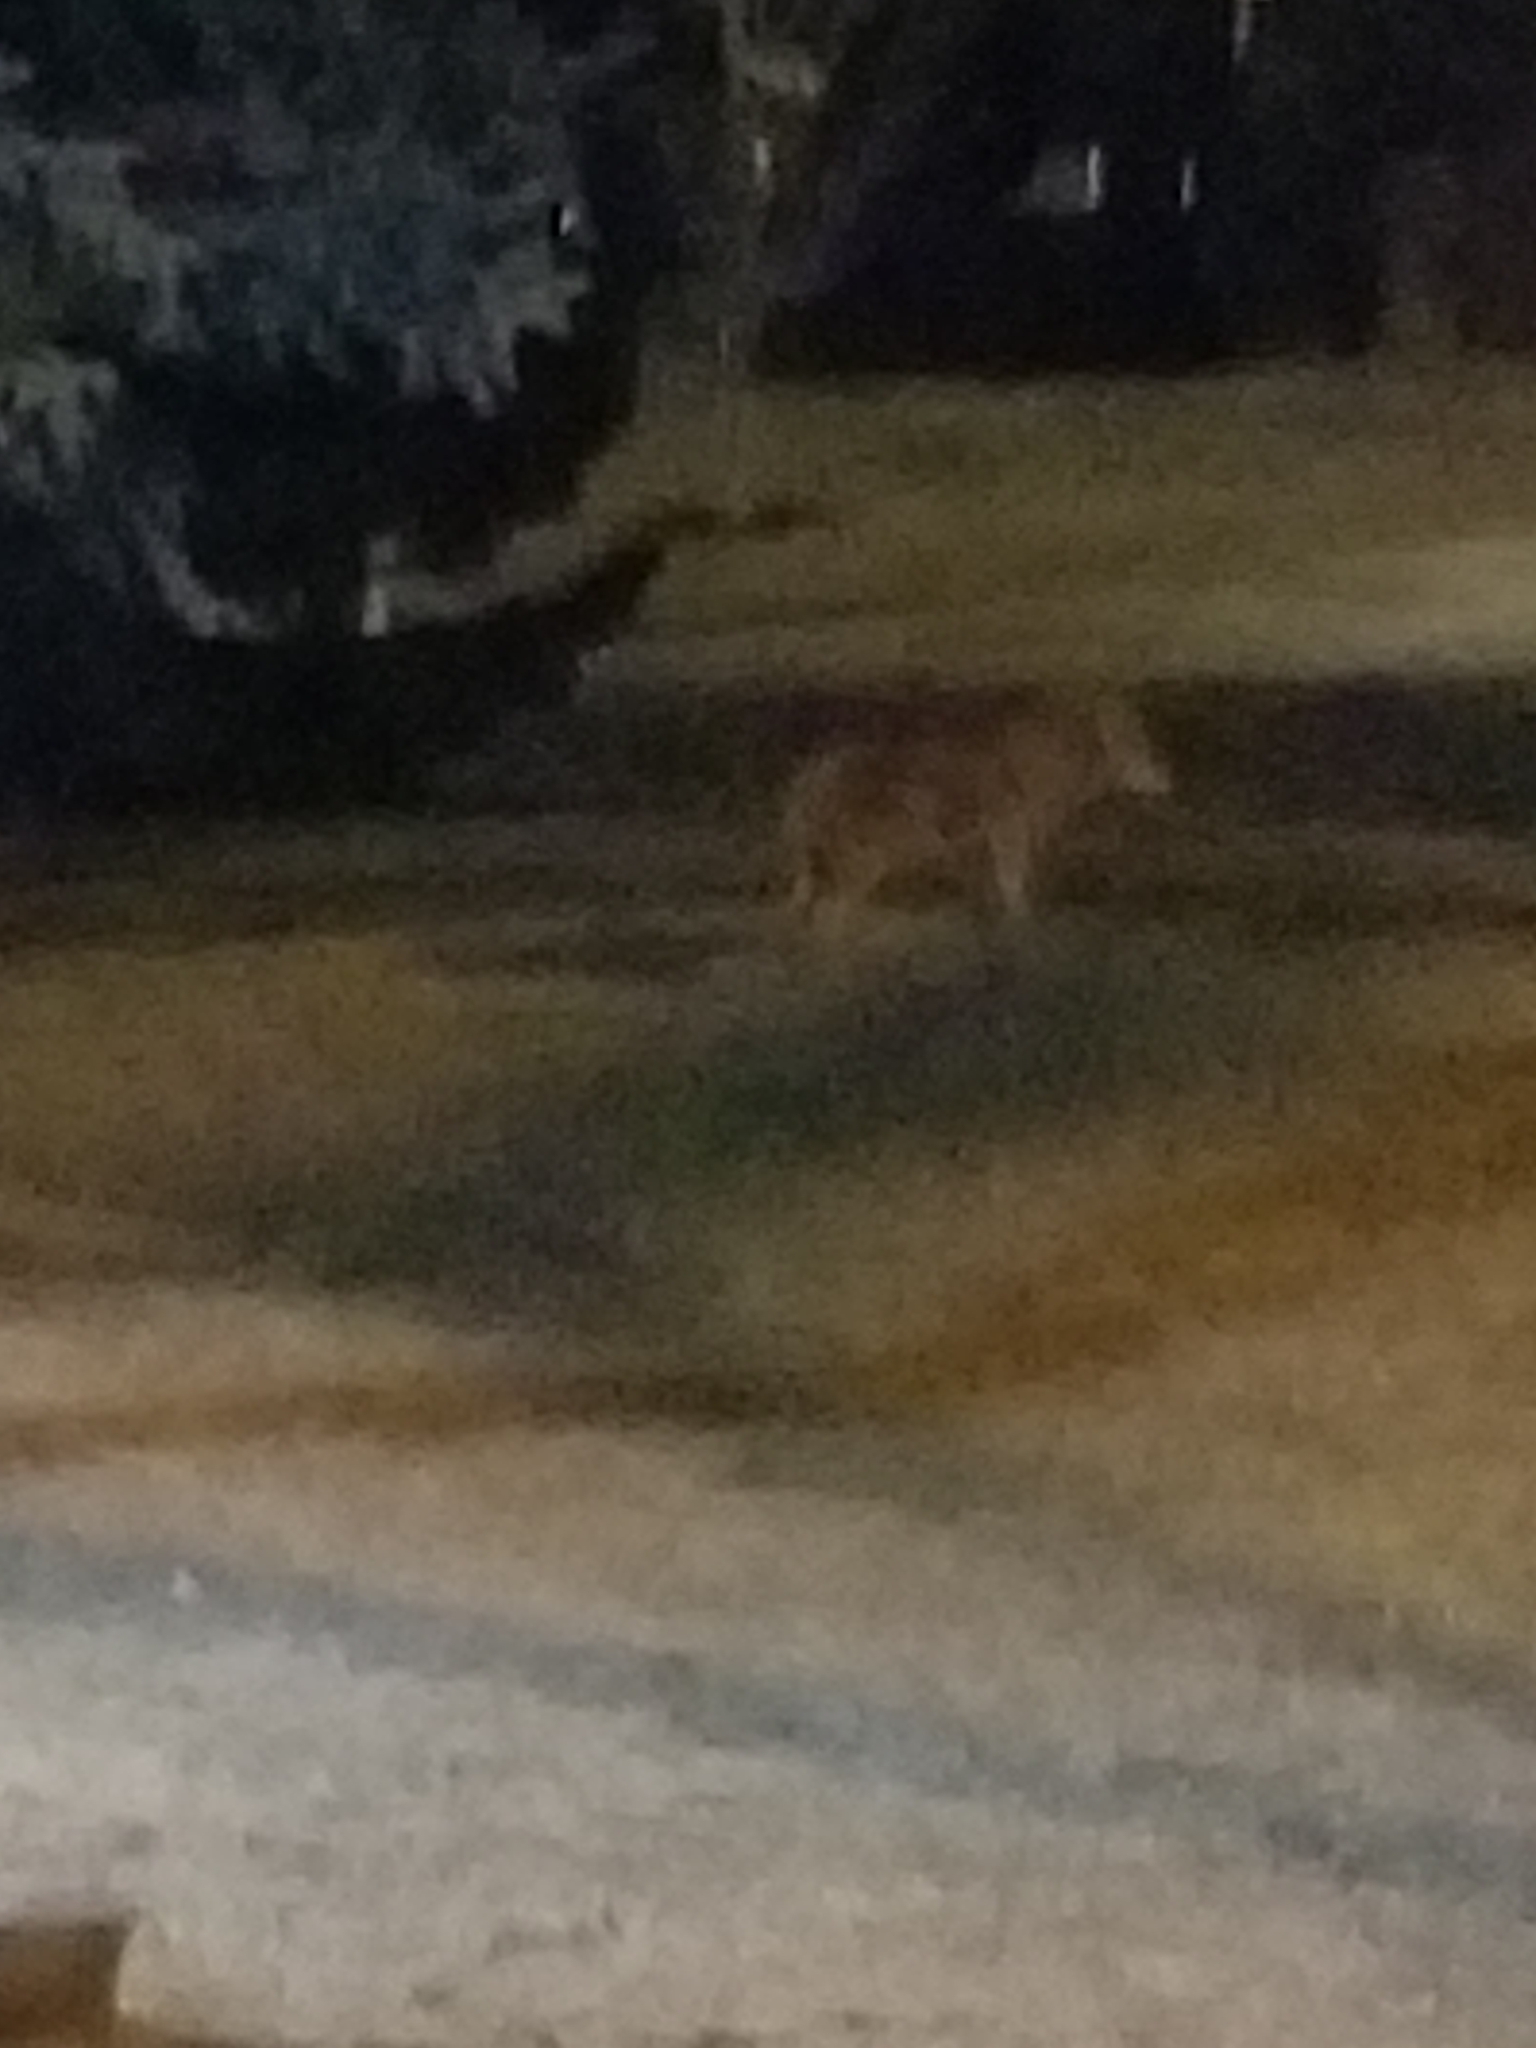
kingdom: Animalia
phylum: Chordata
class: Mammalia
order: Carnivora
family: Canidae
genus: Canis
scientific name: Canis latrans
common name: Coyote
